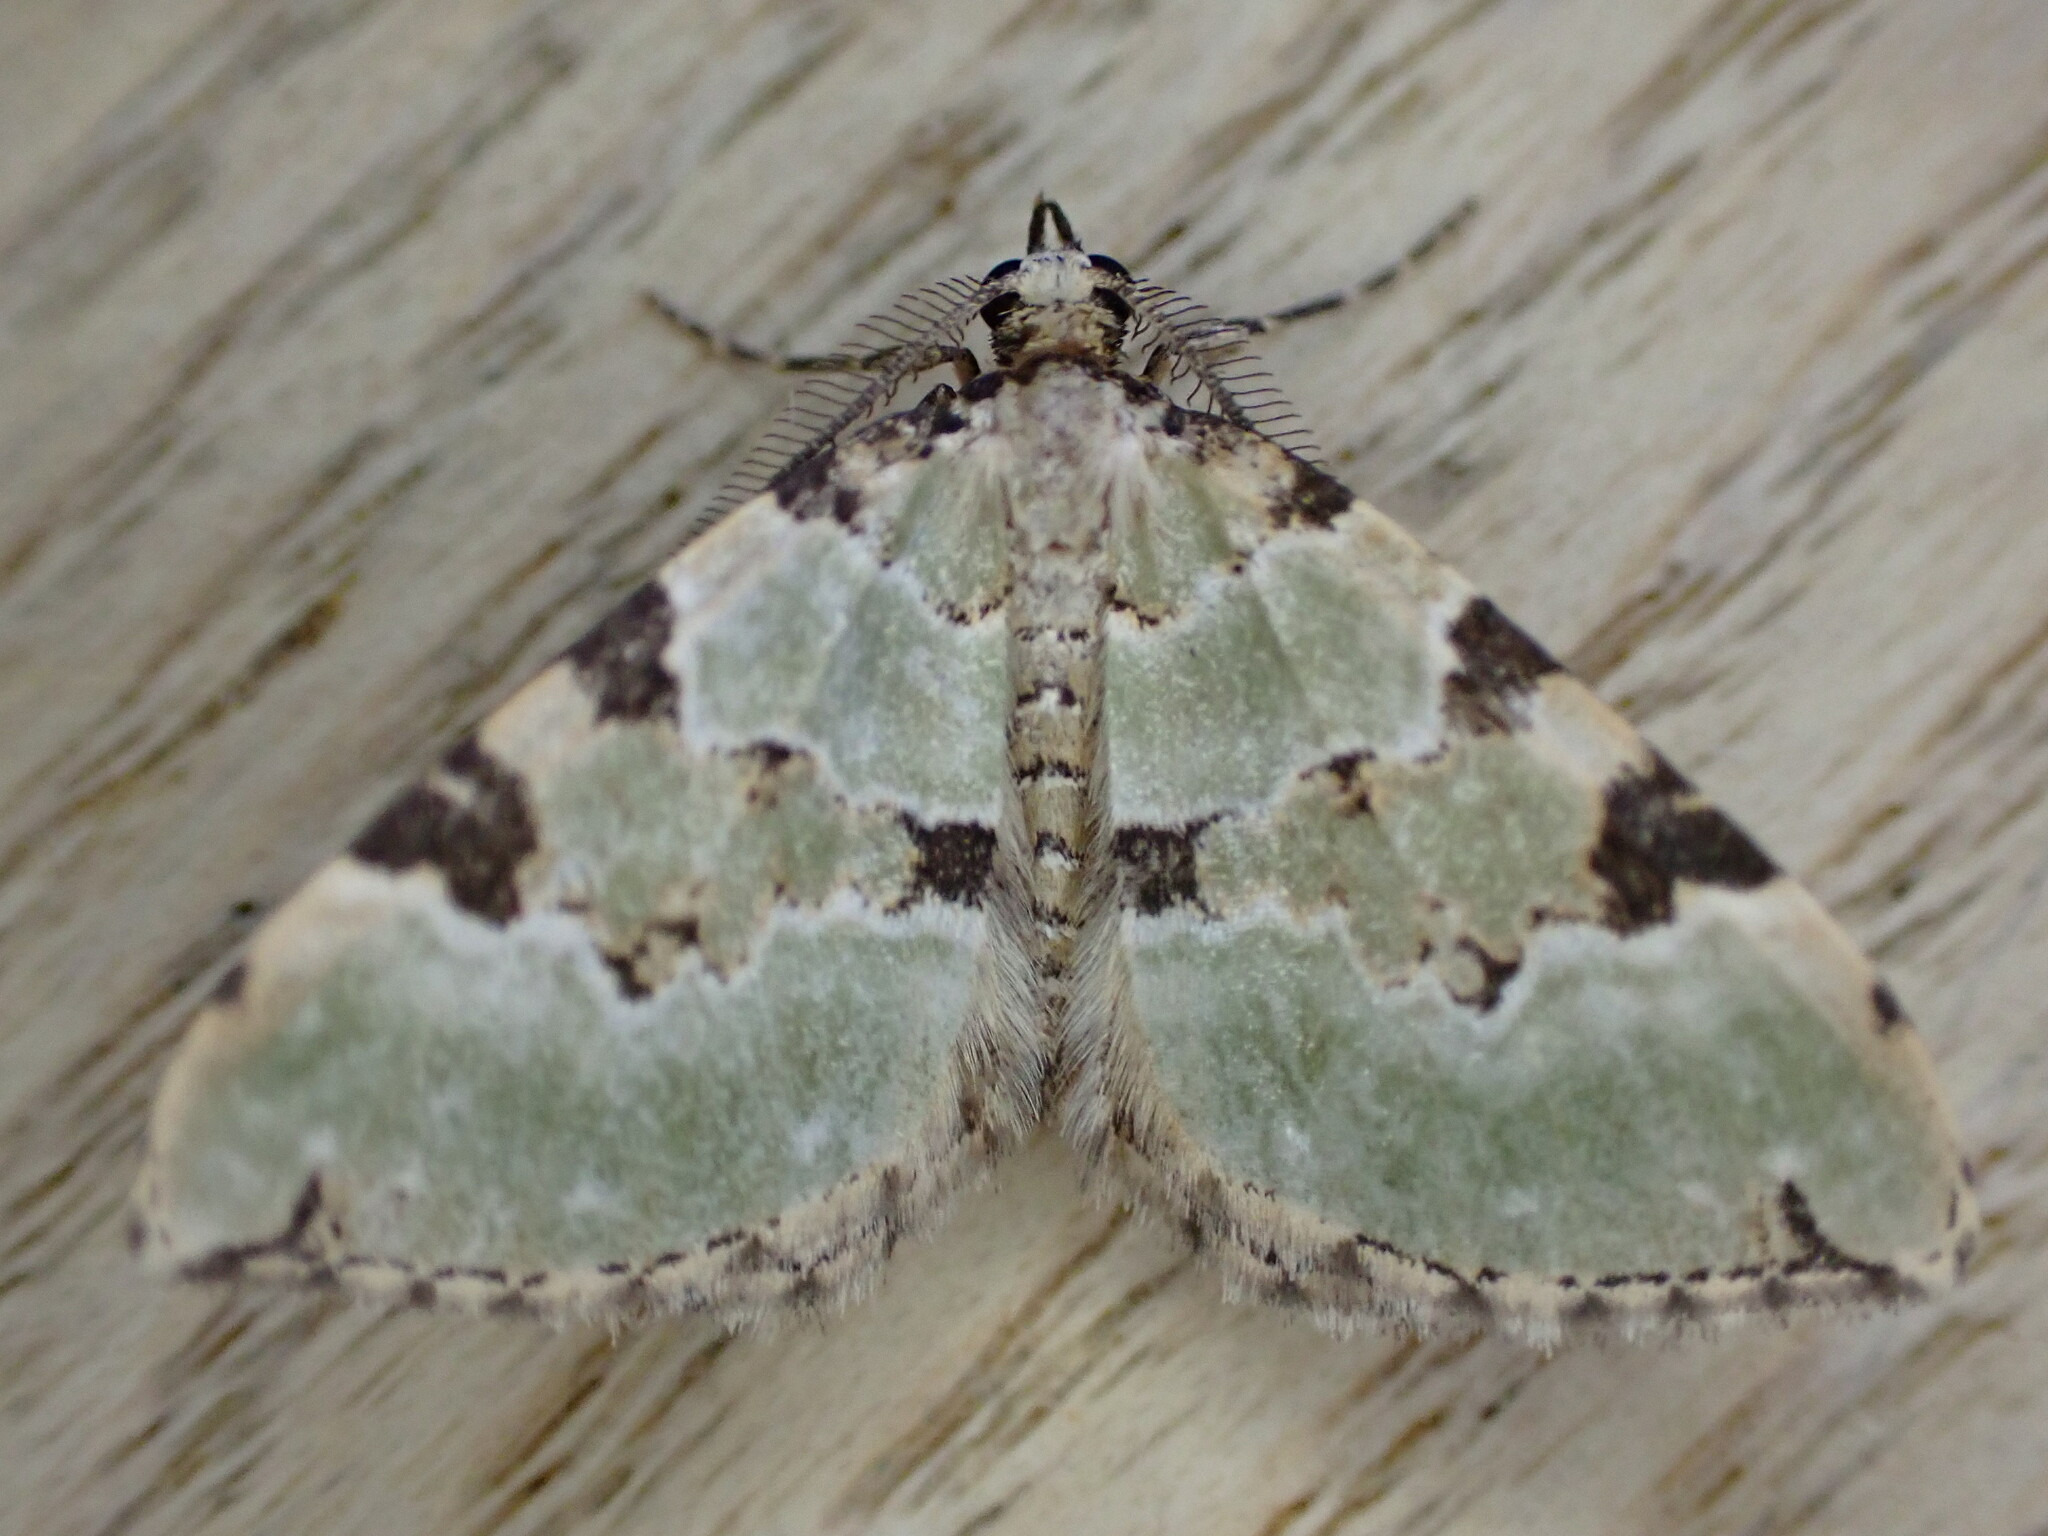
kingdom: Animalia
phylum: Arthropoda
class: Insecta
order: Lepidoptera
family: Geometridae
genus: Colostygia
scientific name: Colostygia pectinataria
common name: Green carpet
